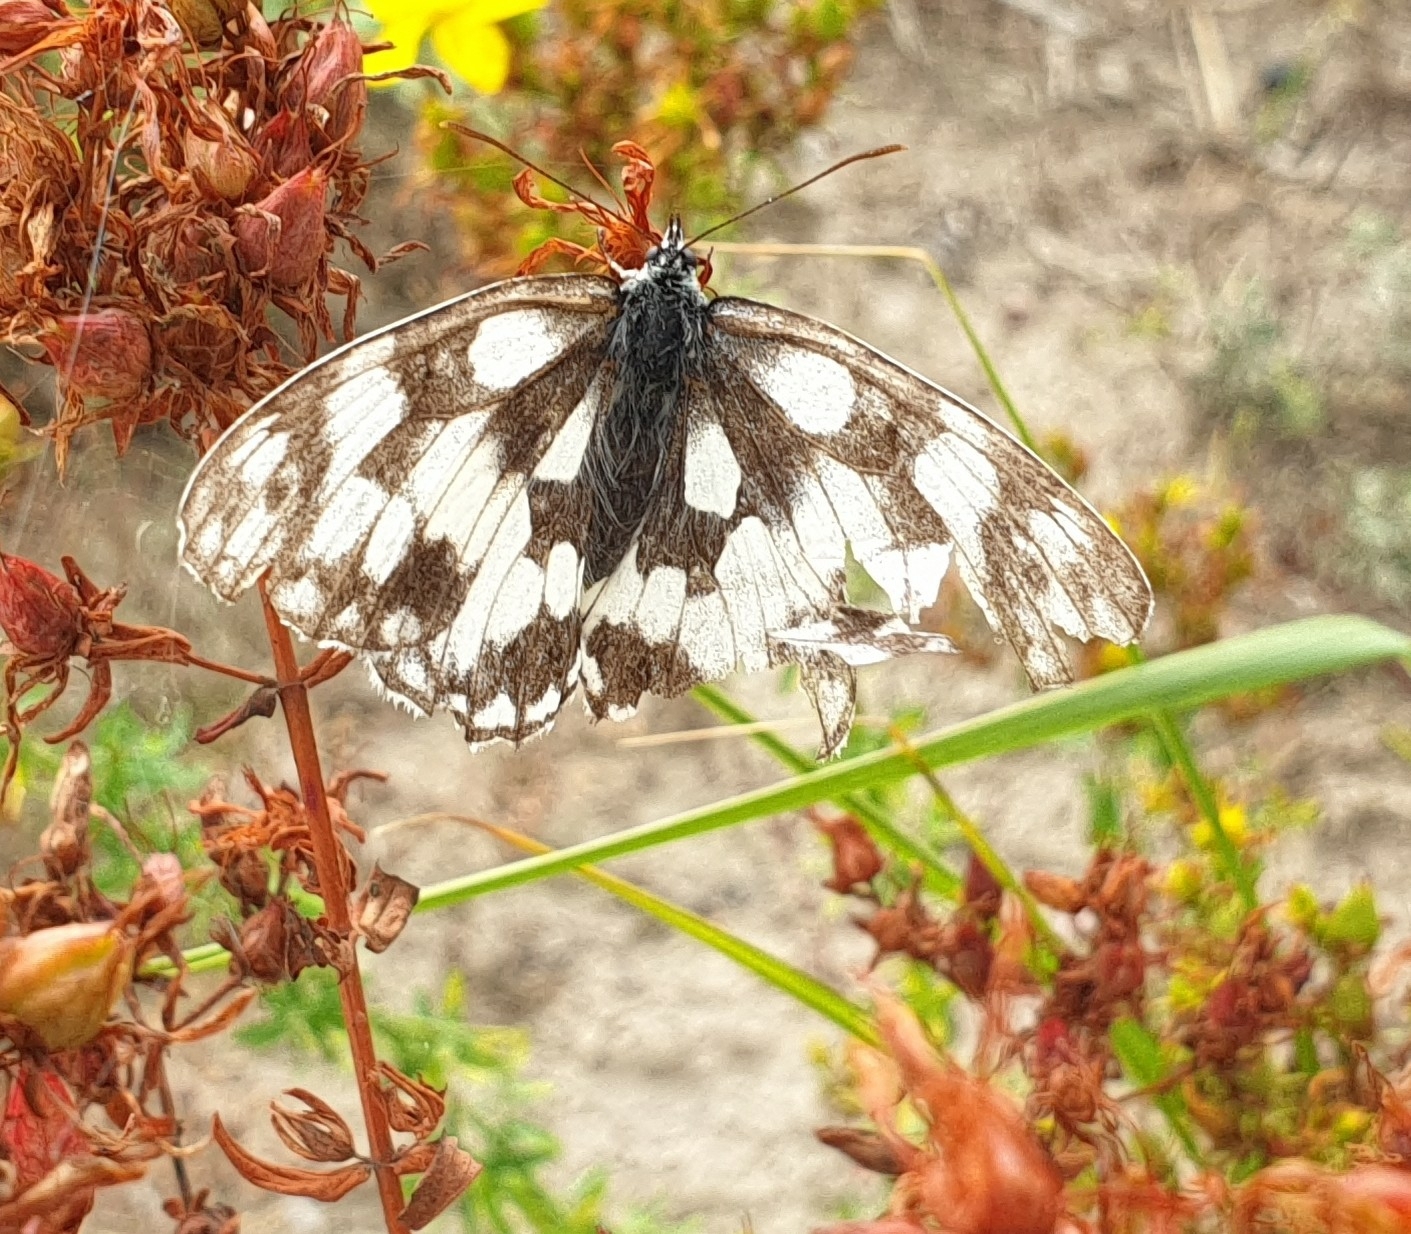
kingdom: Animalia
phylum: Arthropoda
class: Insecta
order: Lepidoptera
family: Nymphalidae
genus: Melanargia
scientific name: Melanargia galathea
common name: Marbled white
